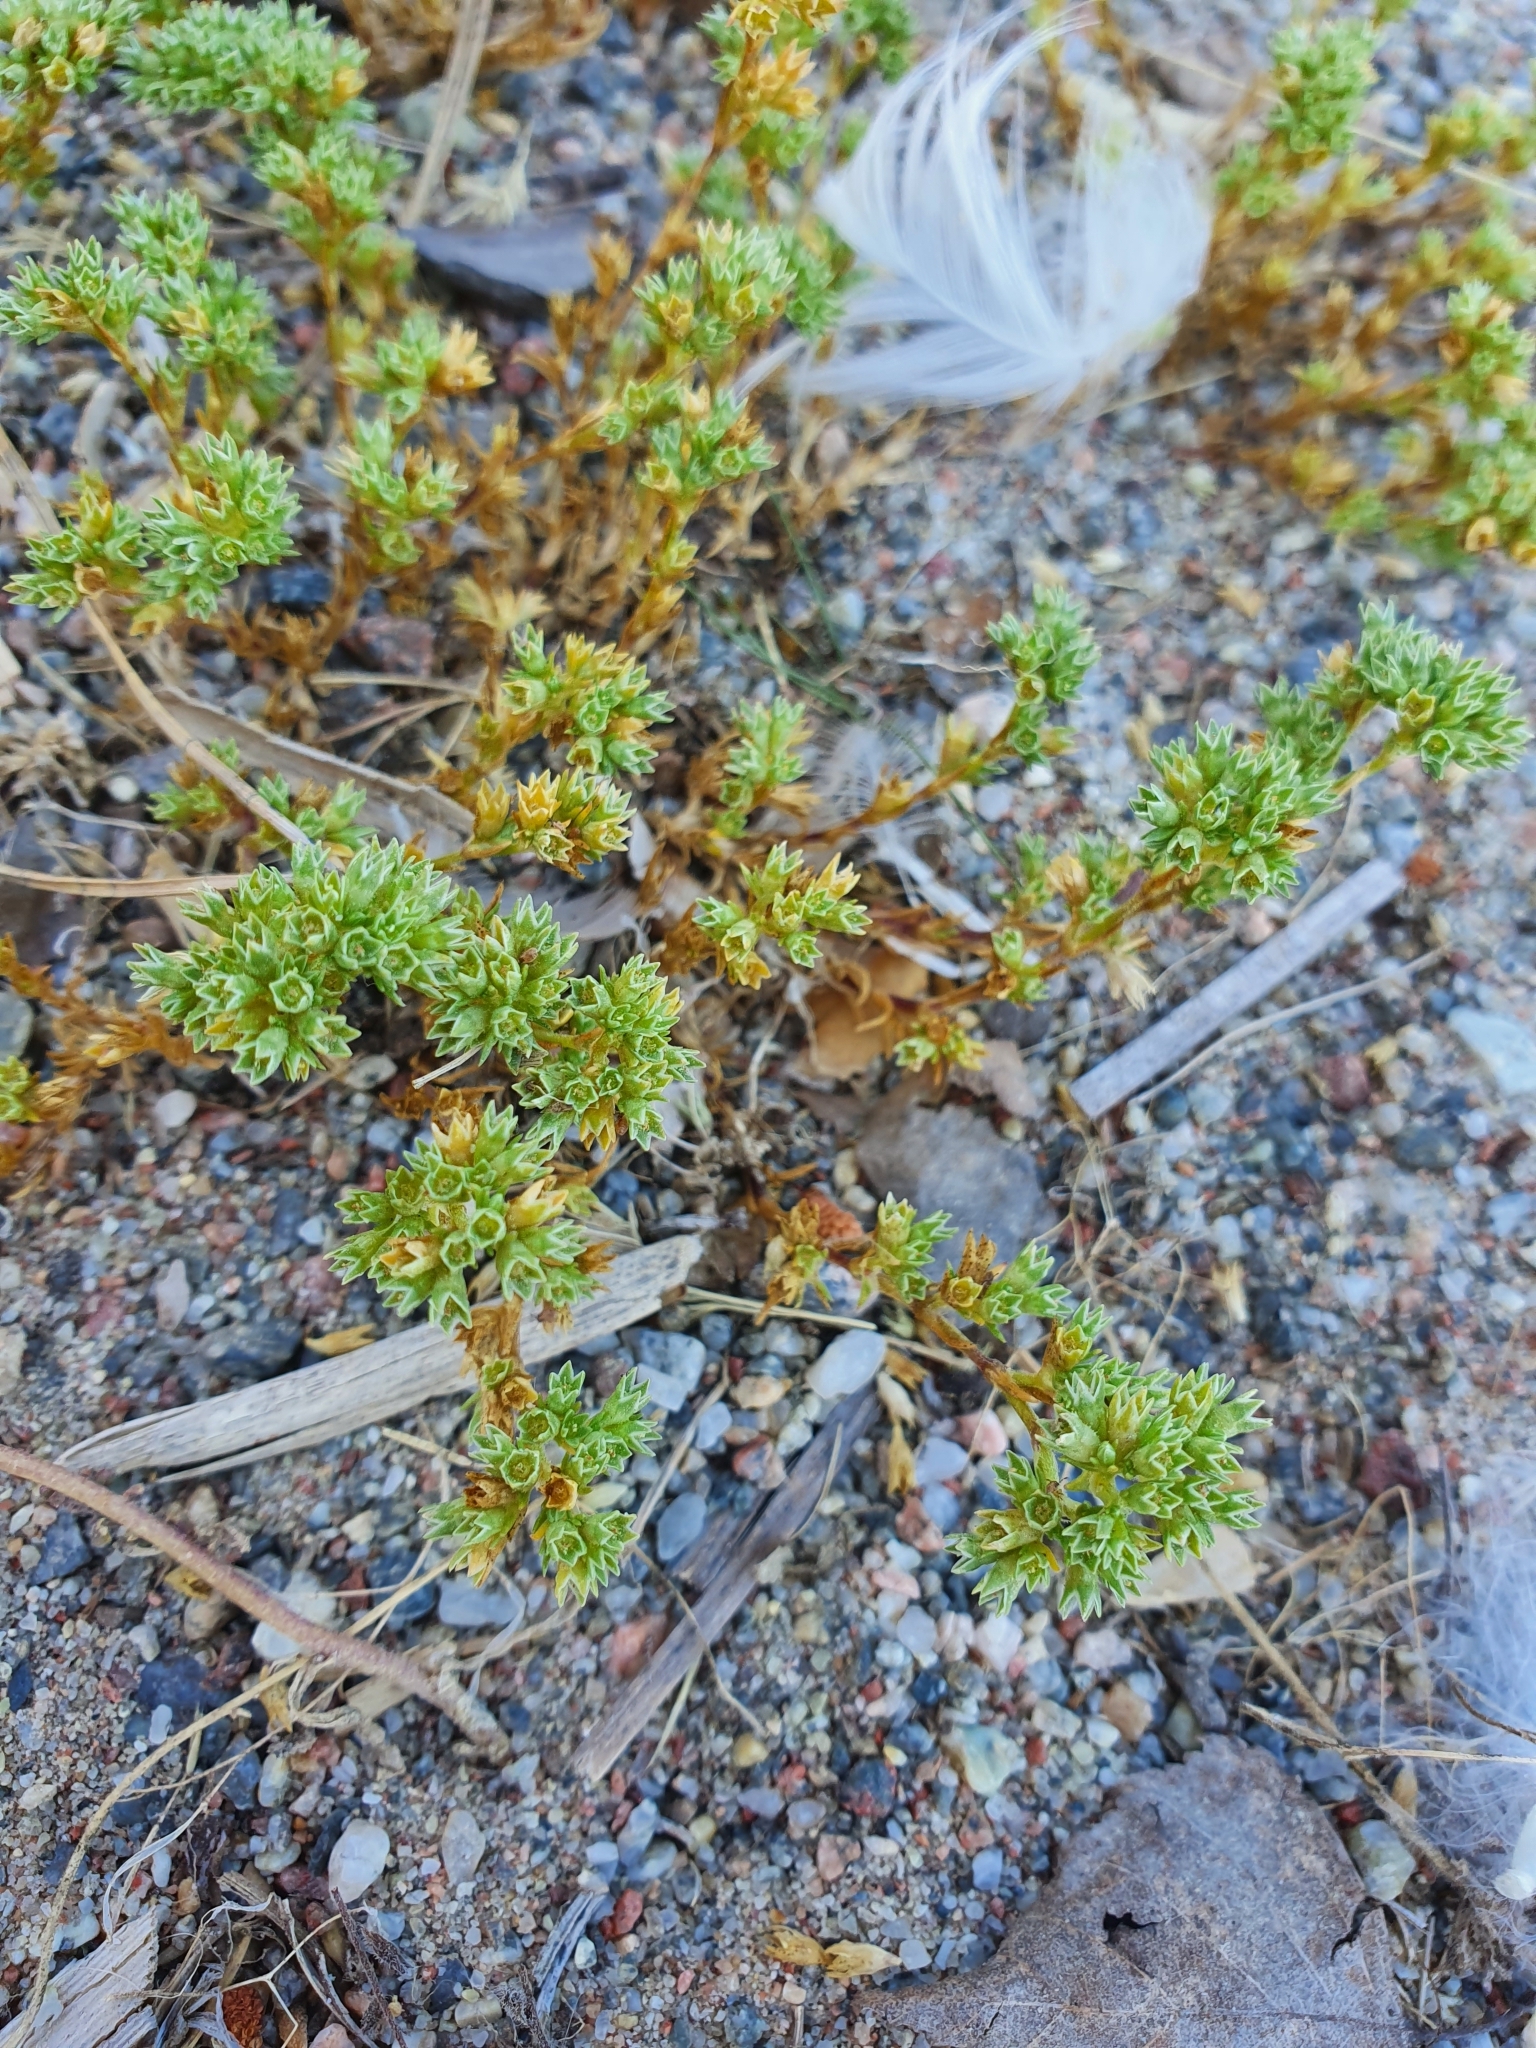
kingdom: Plantae
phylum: Tracheophyta
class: Magnoliopsida
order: Caryophyllales
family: Caryophyllaceae
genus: Scleranthus
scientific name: Scleranthus annuus
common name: Annual knawel
